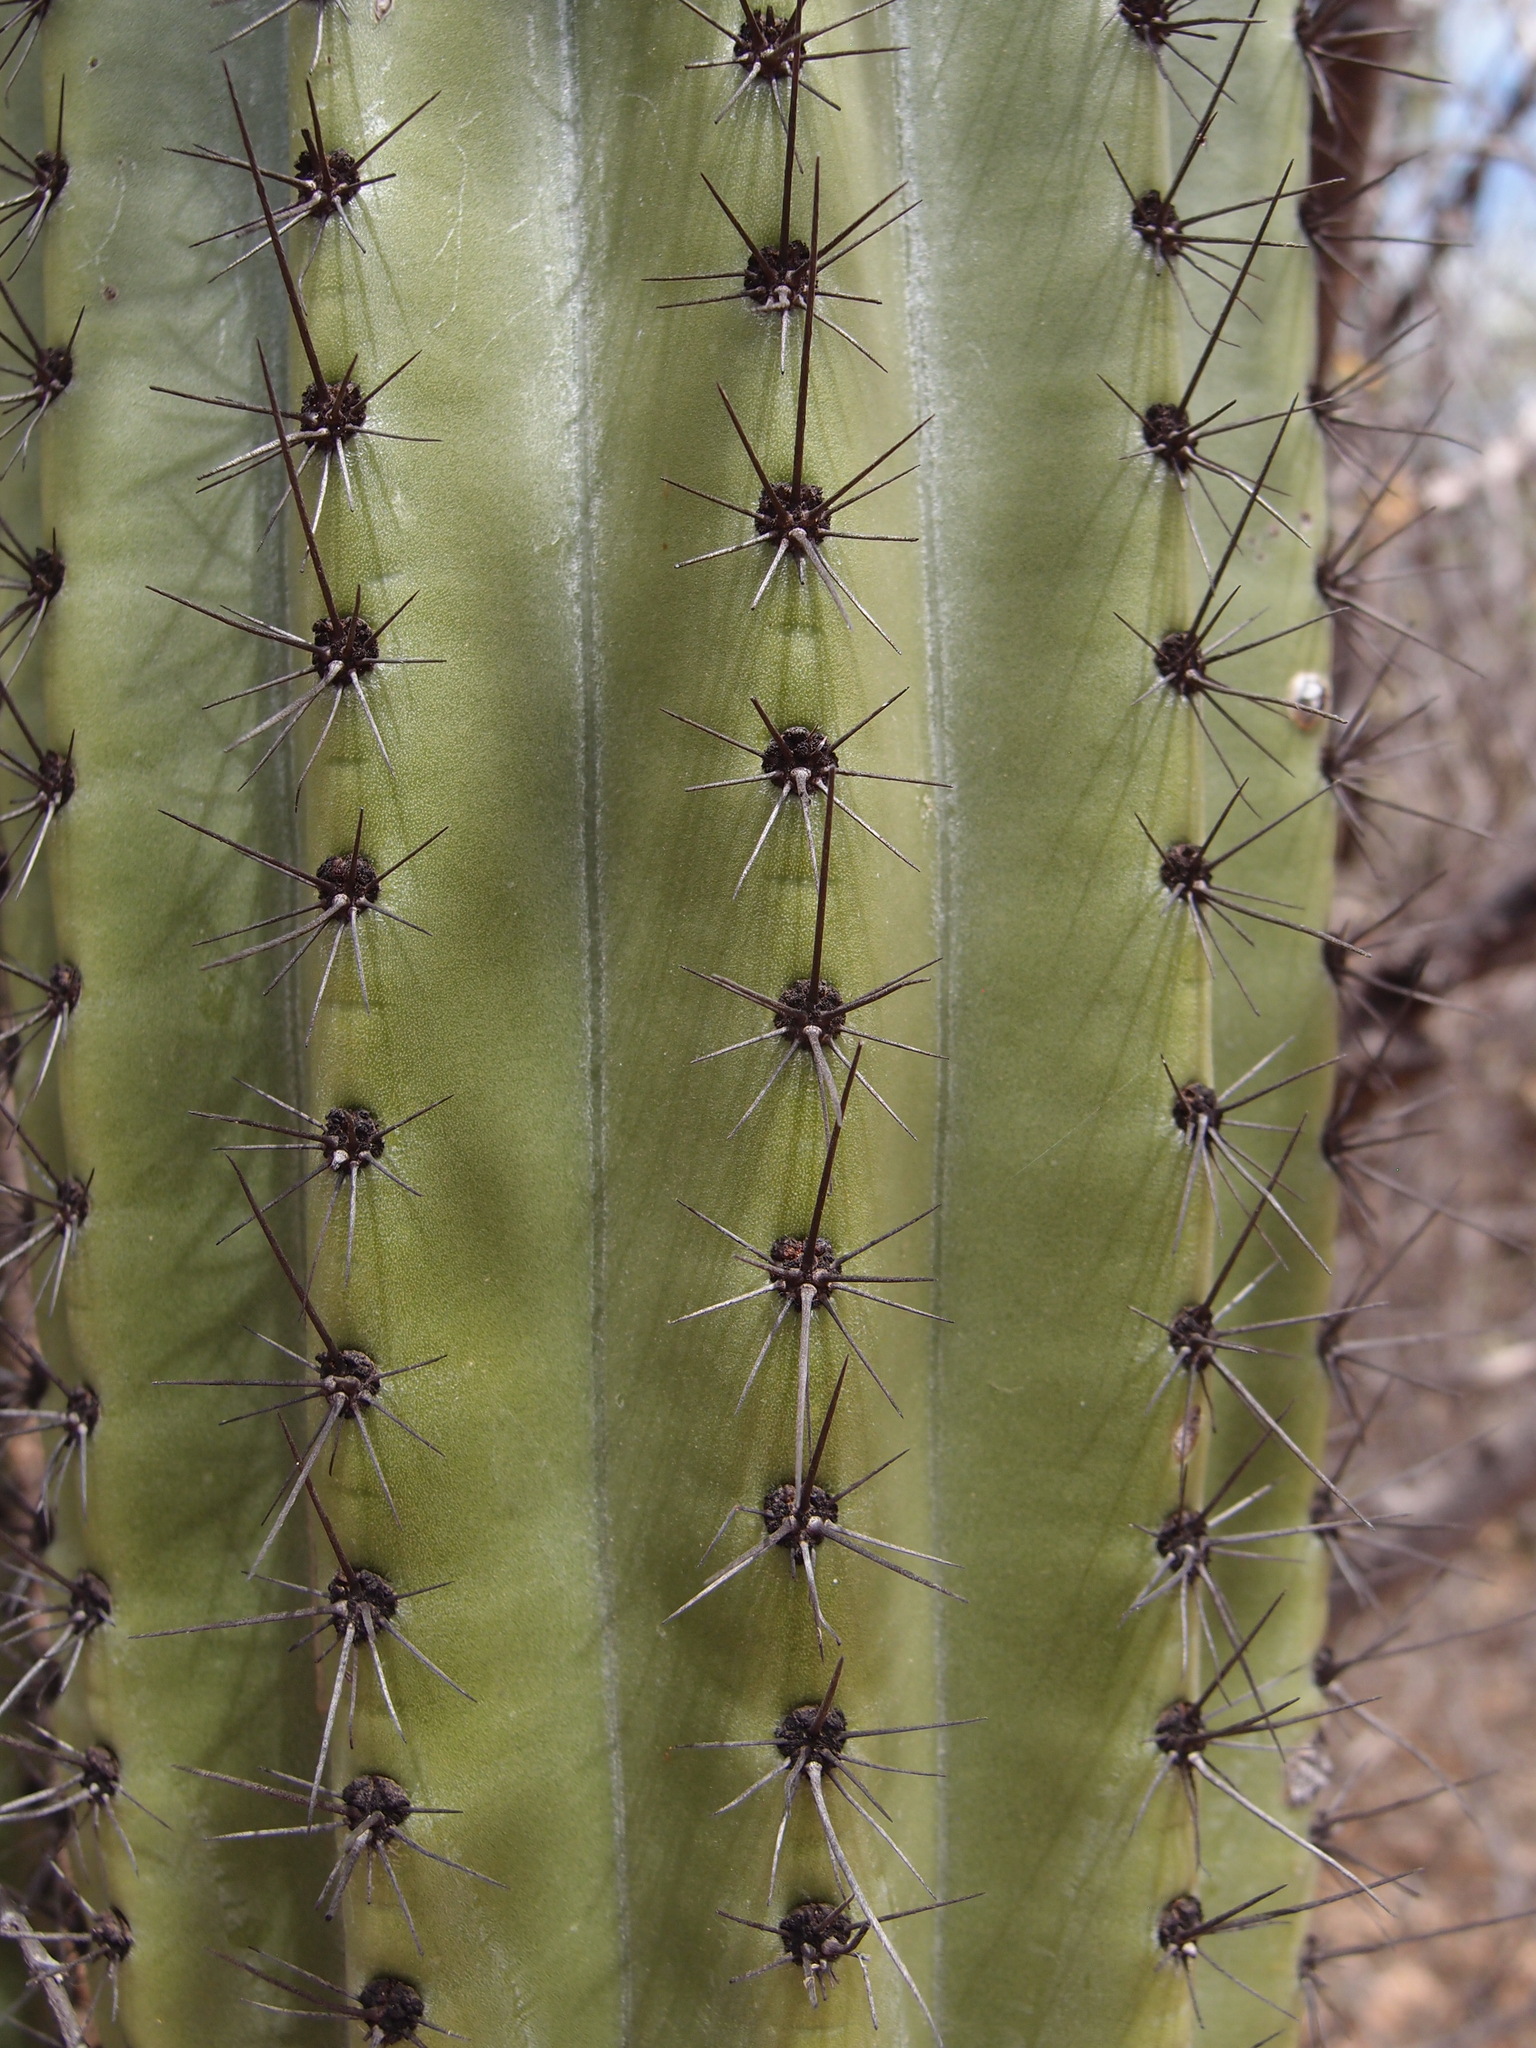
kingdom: Plantae
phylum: Tracheophyta
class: Magnoliopsida
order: Caryophyllales
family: Cactaceae
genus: Stenocereus
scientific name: Stenocereus thurberi
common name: Organ pipe cactus
